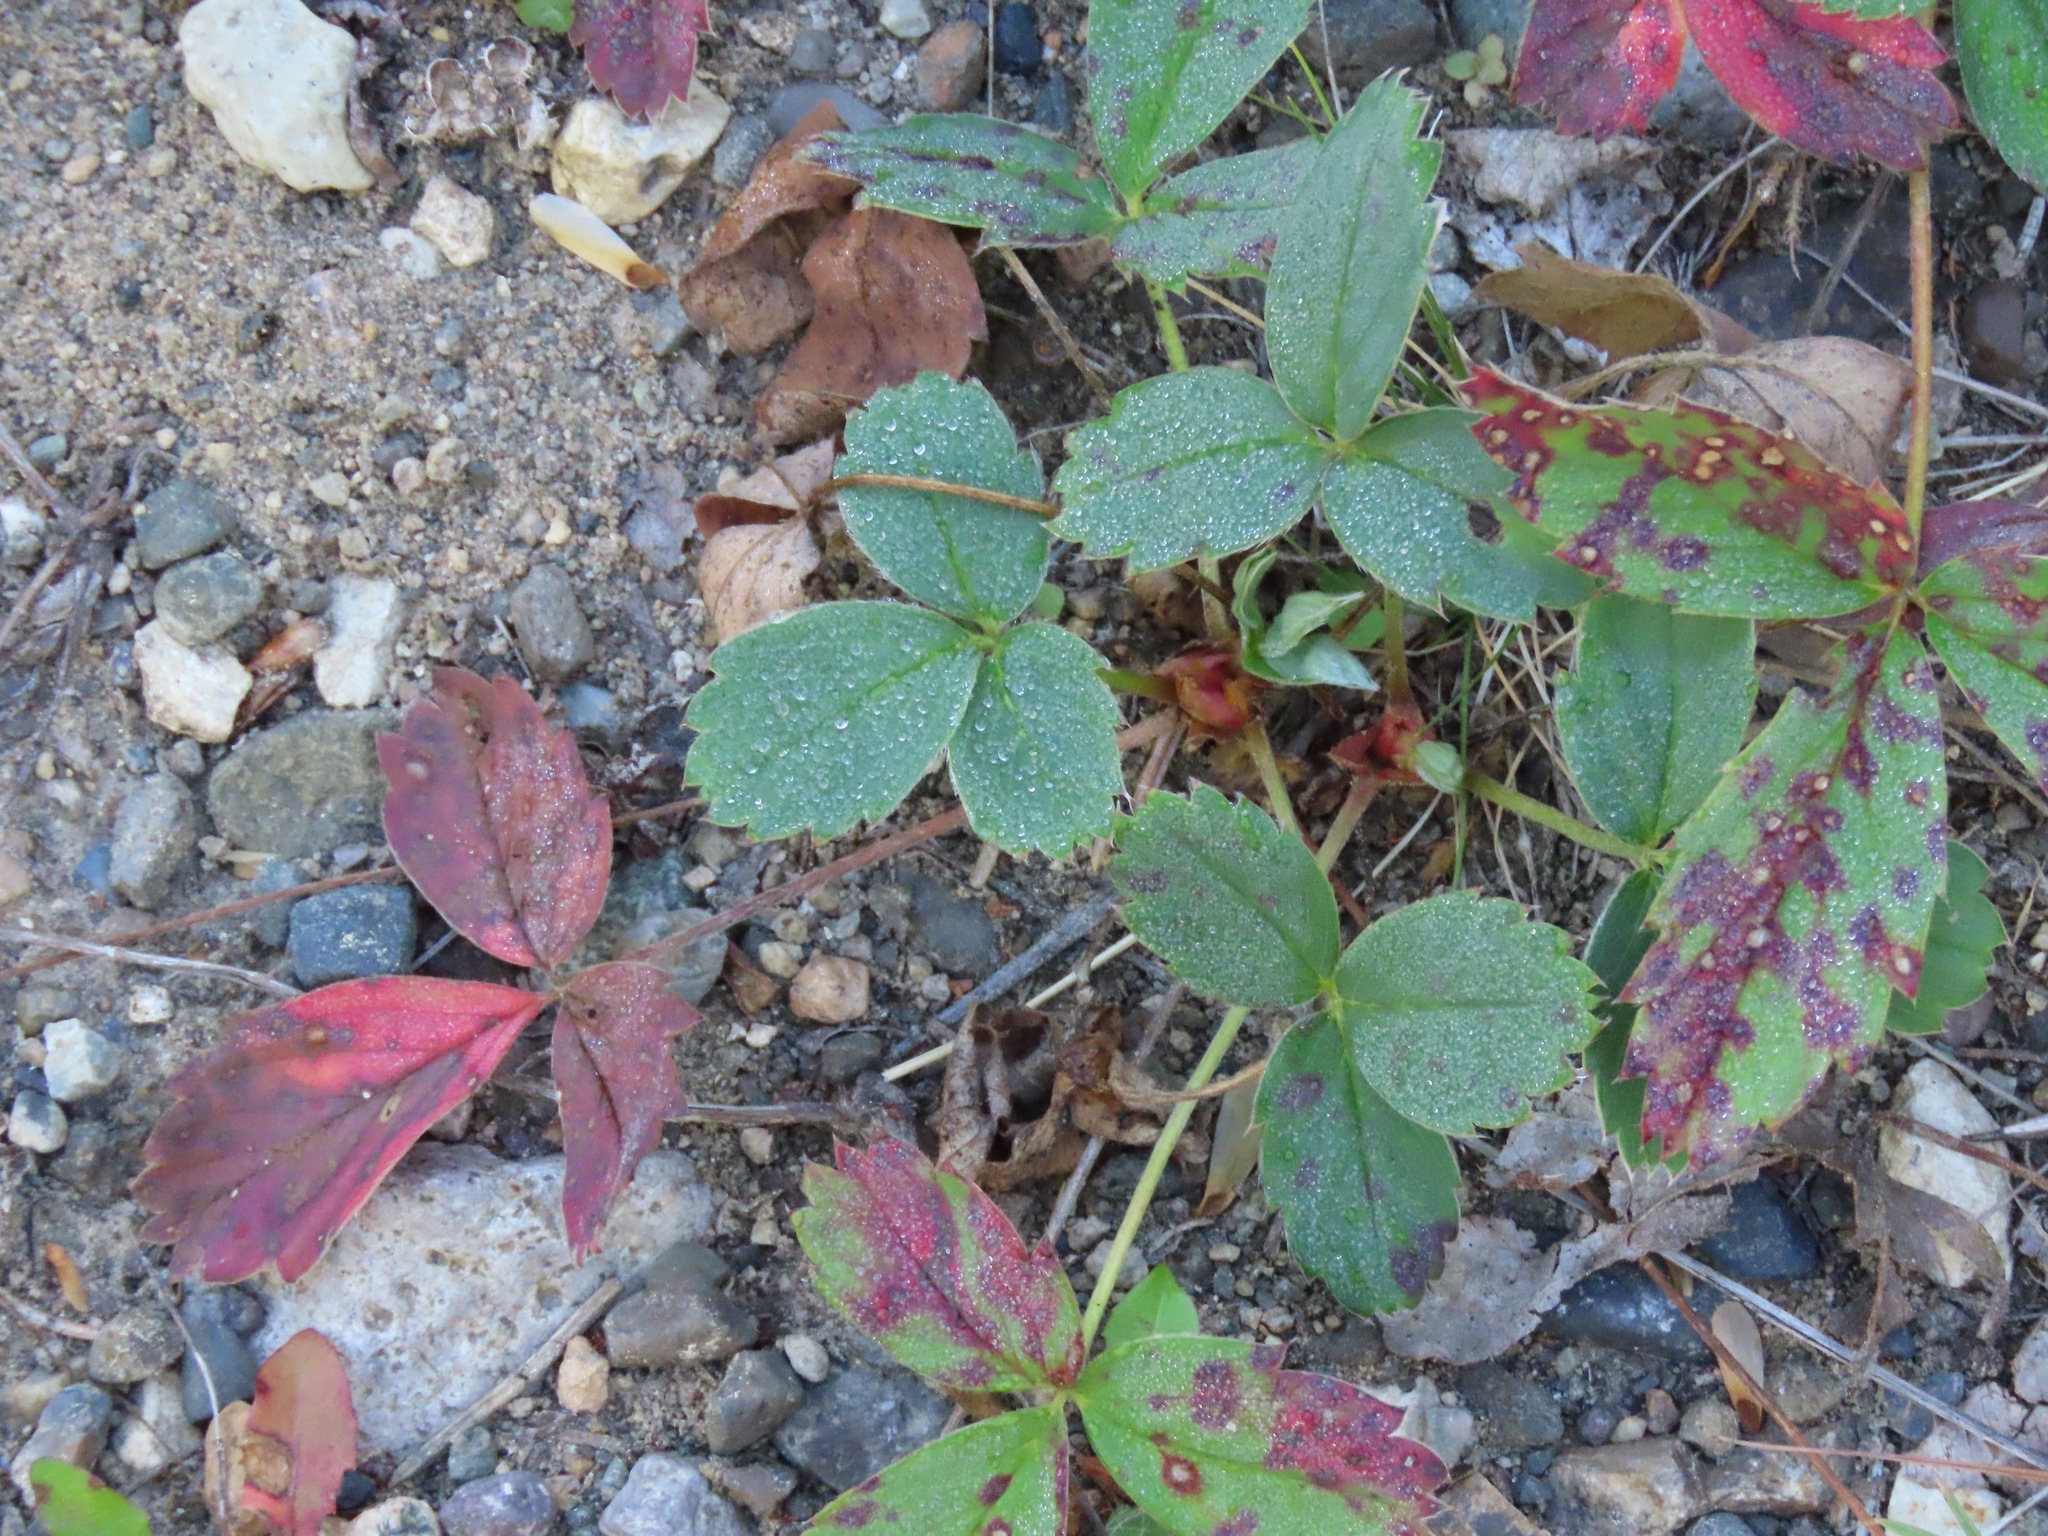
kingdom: Plantae
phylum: Tracheophyta
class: Magnoliopsida
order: Rosales
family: Rosaceae
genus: Fragaria
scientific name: Fragaria virginiana
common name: Thickleaved wild strawberry
